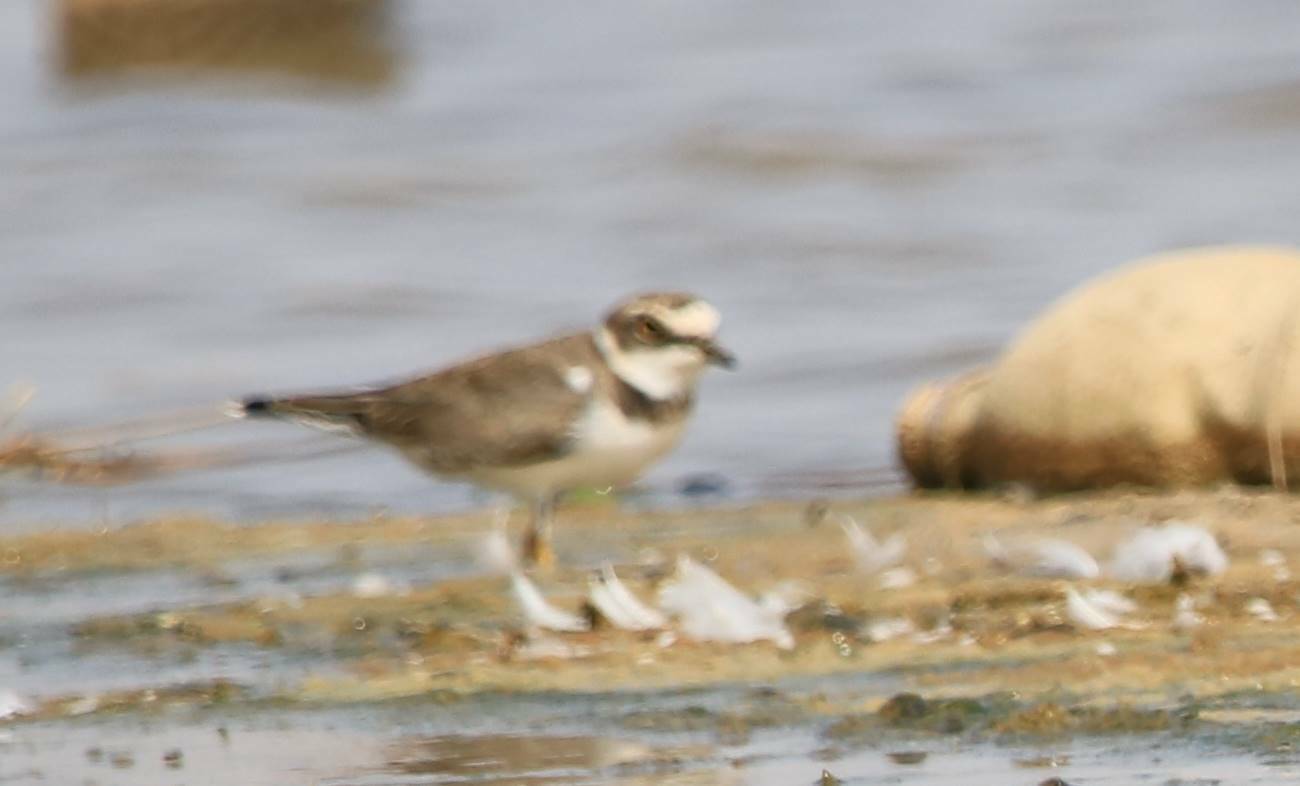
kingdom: Animalia
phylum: Chordata
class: Aves
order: Charadriiformes
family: Charadriidae
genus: Charadrius
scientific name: Charadrius dubius
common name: Little ringed plover
